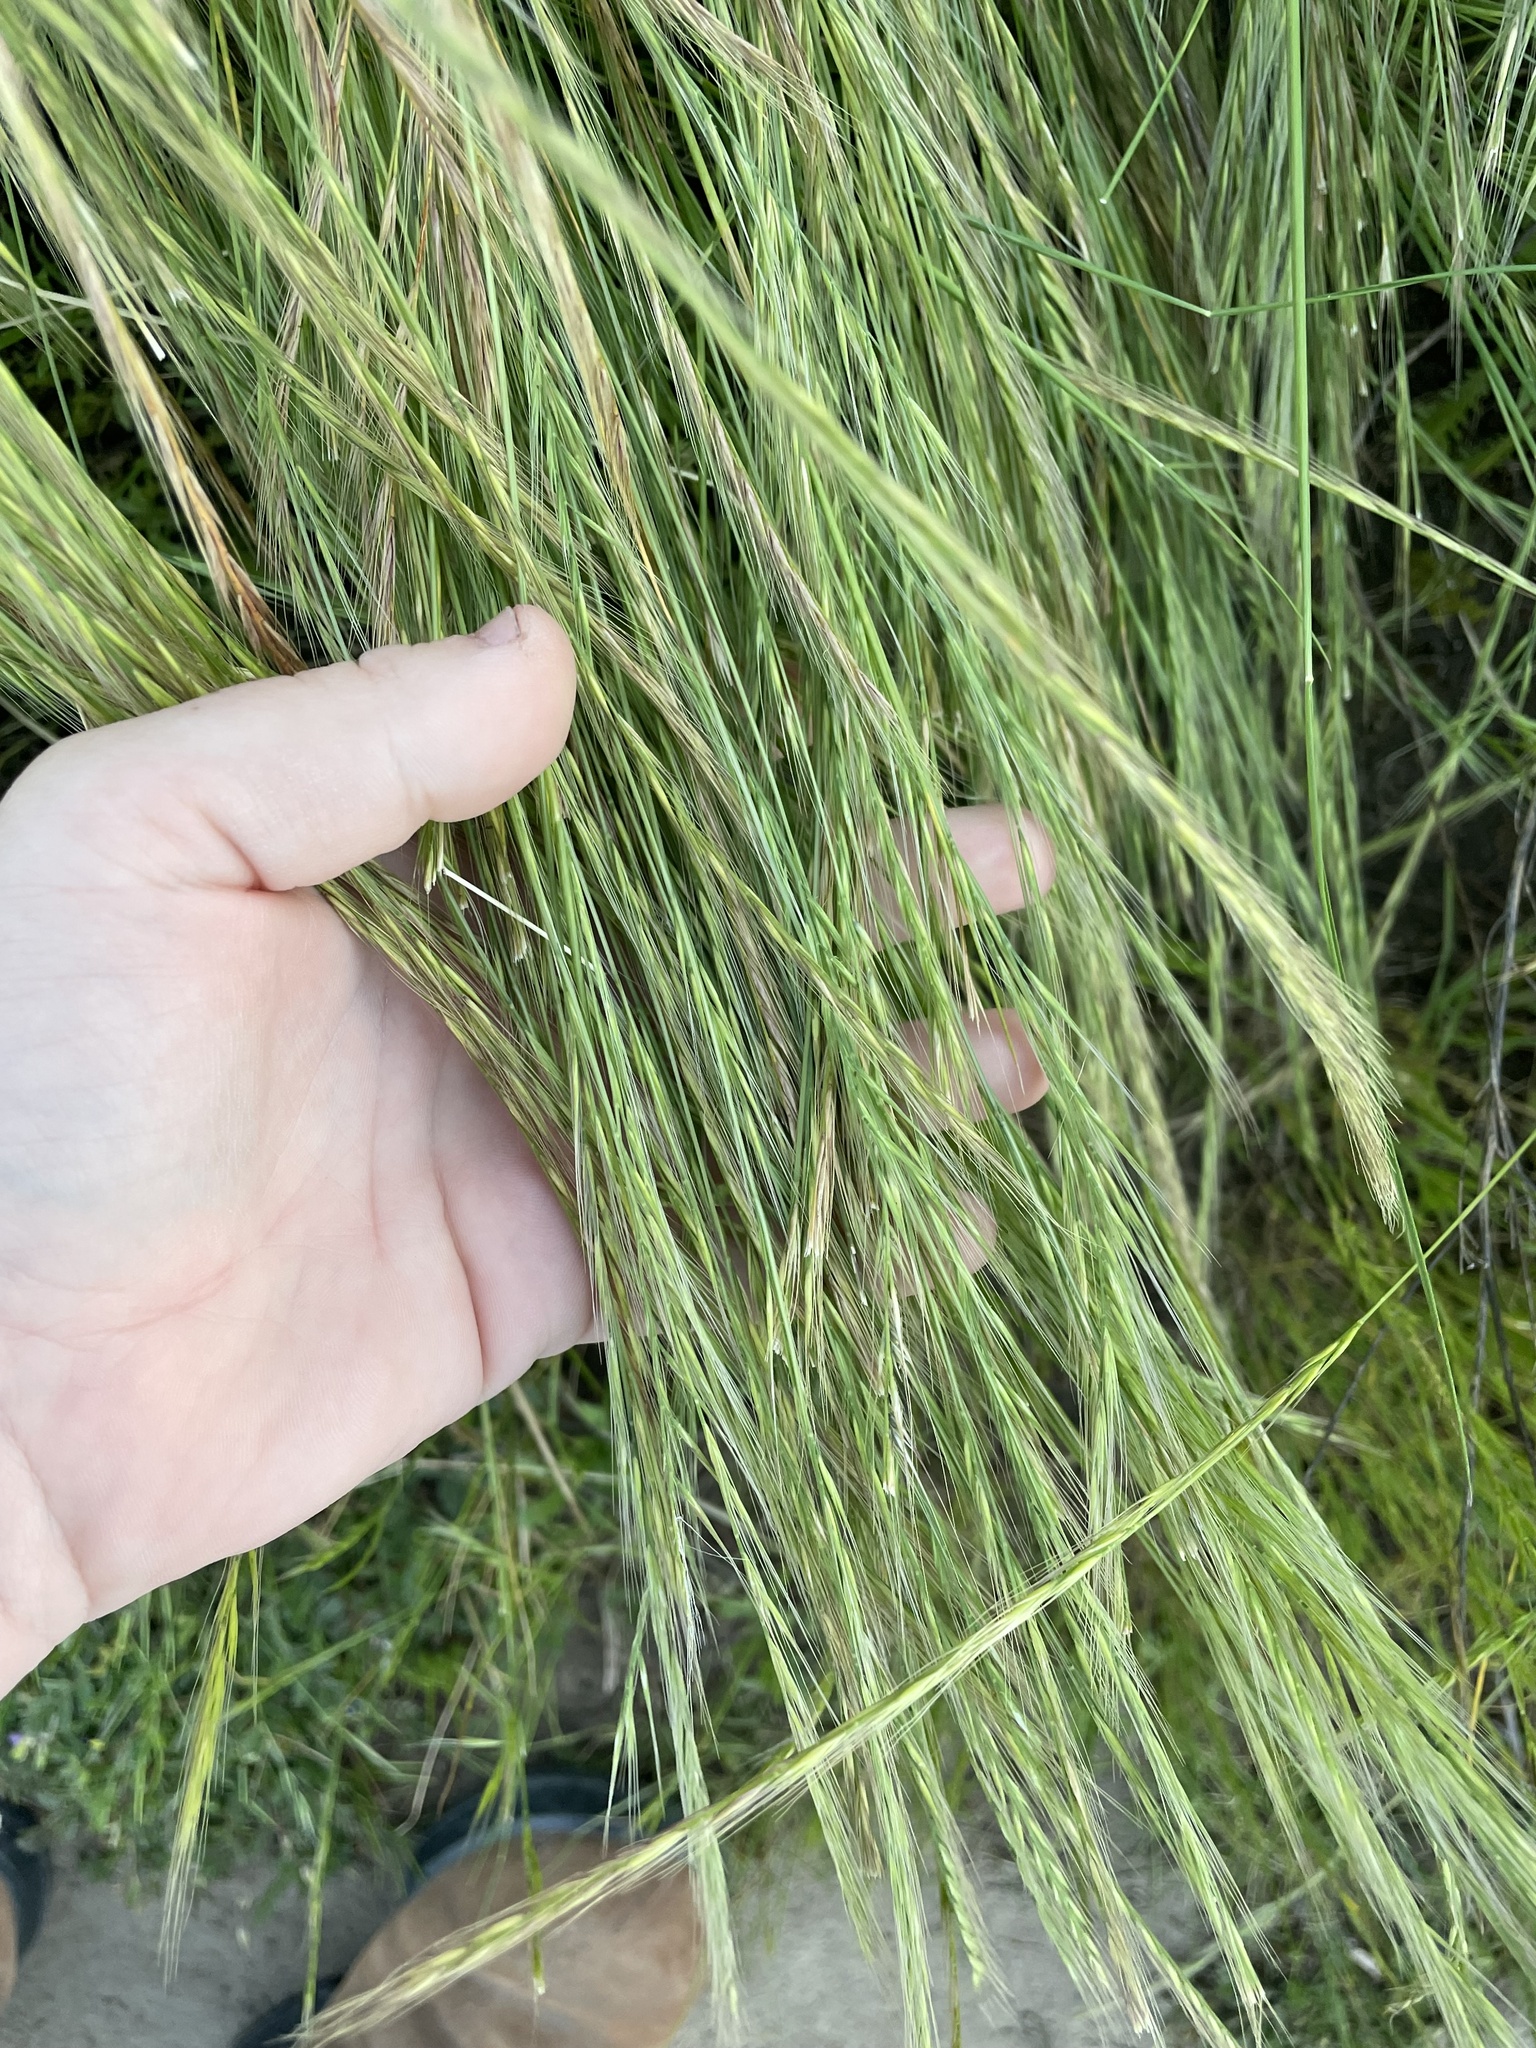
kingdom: Plantae
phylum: Tracheophyta
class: Liliopsida
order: Poales
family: Poaceae
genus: Festuca
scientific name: Festuca myuros
